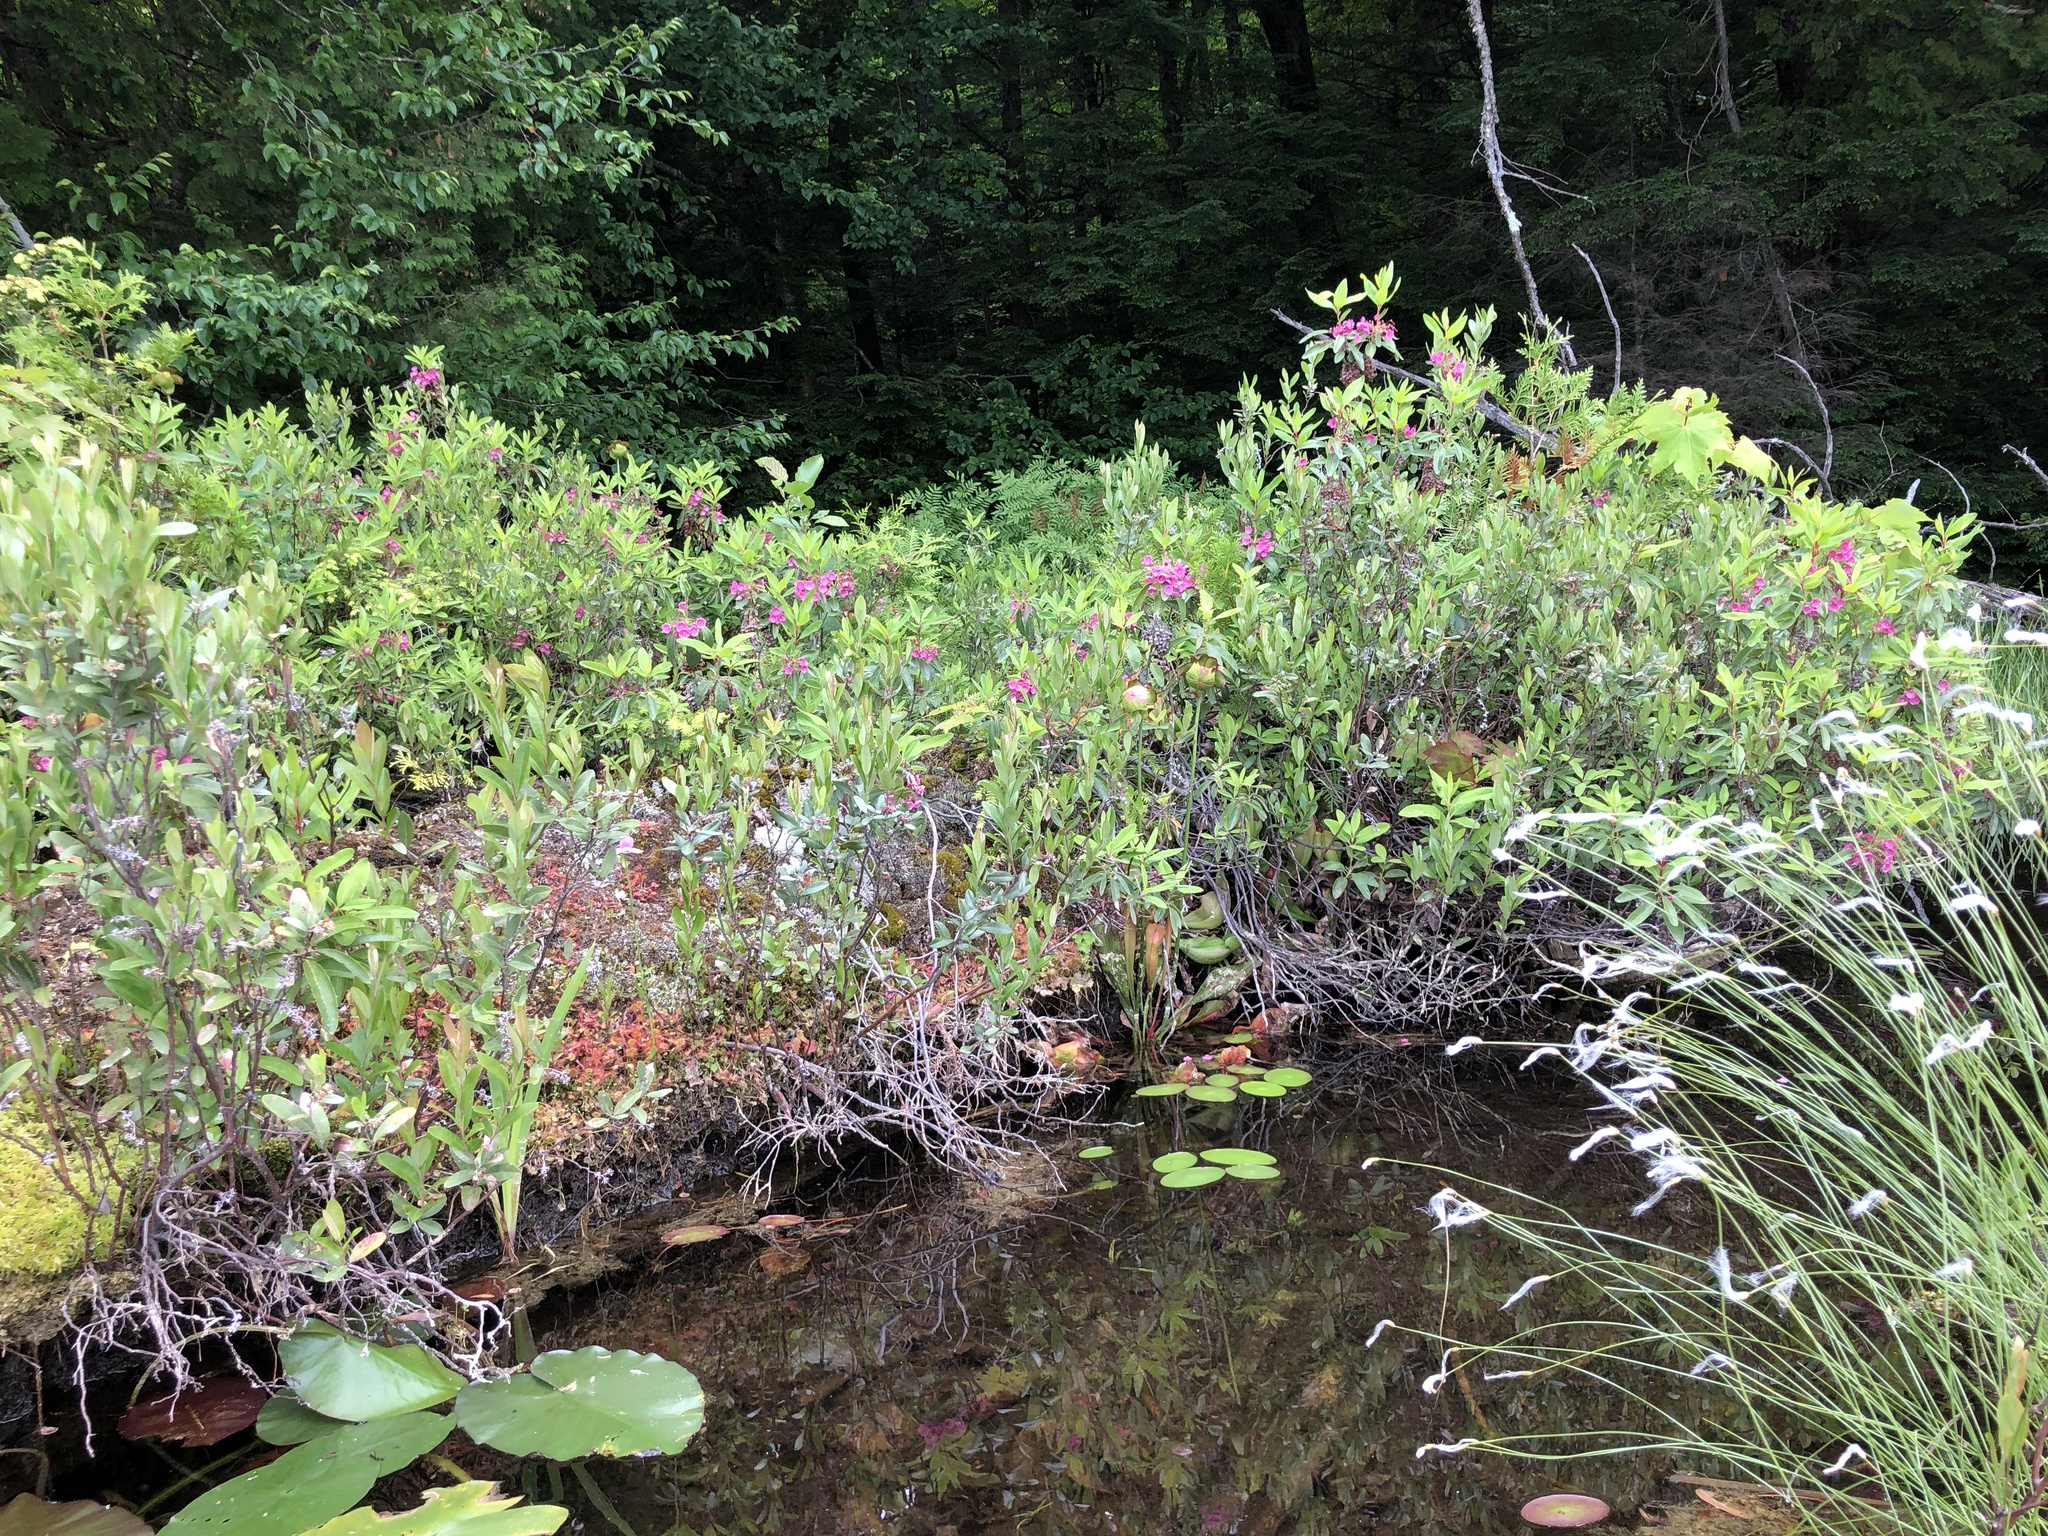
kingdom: Plantae
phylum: Tracheophyta
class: Magnoliopsida
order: Ericales
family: Ericaceae
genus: Kalmia
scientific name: Kalmia angustifolia
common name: Sheep-laurel
